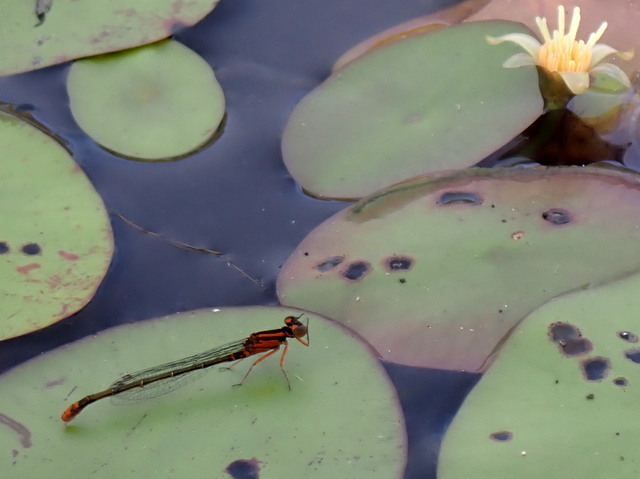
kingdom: Animalia
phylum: Arthropoda
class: Insecta
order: Odonata
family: Coenagrionidae
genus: Ischnura
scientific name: Ischnura kellicotti
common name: Lilypad forktail
